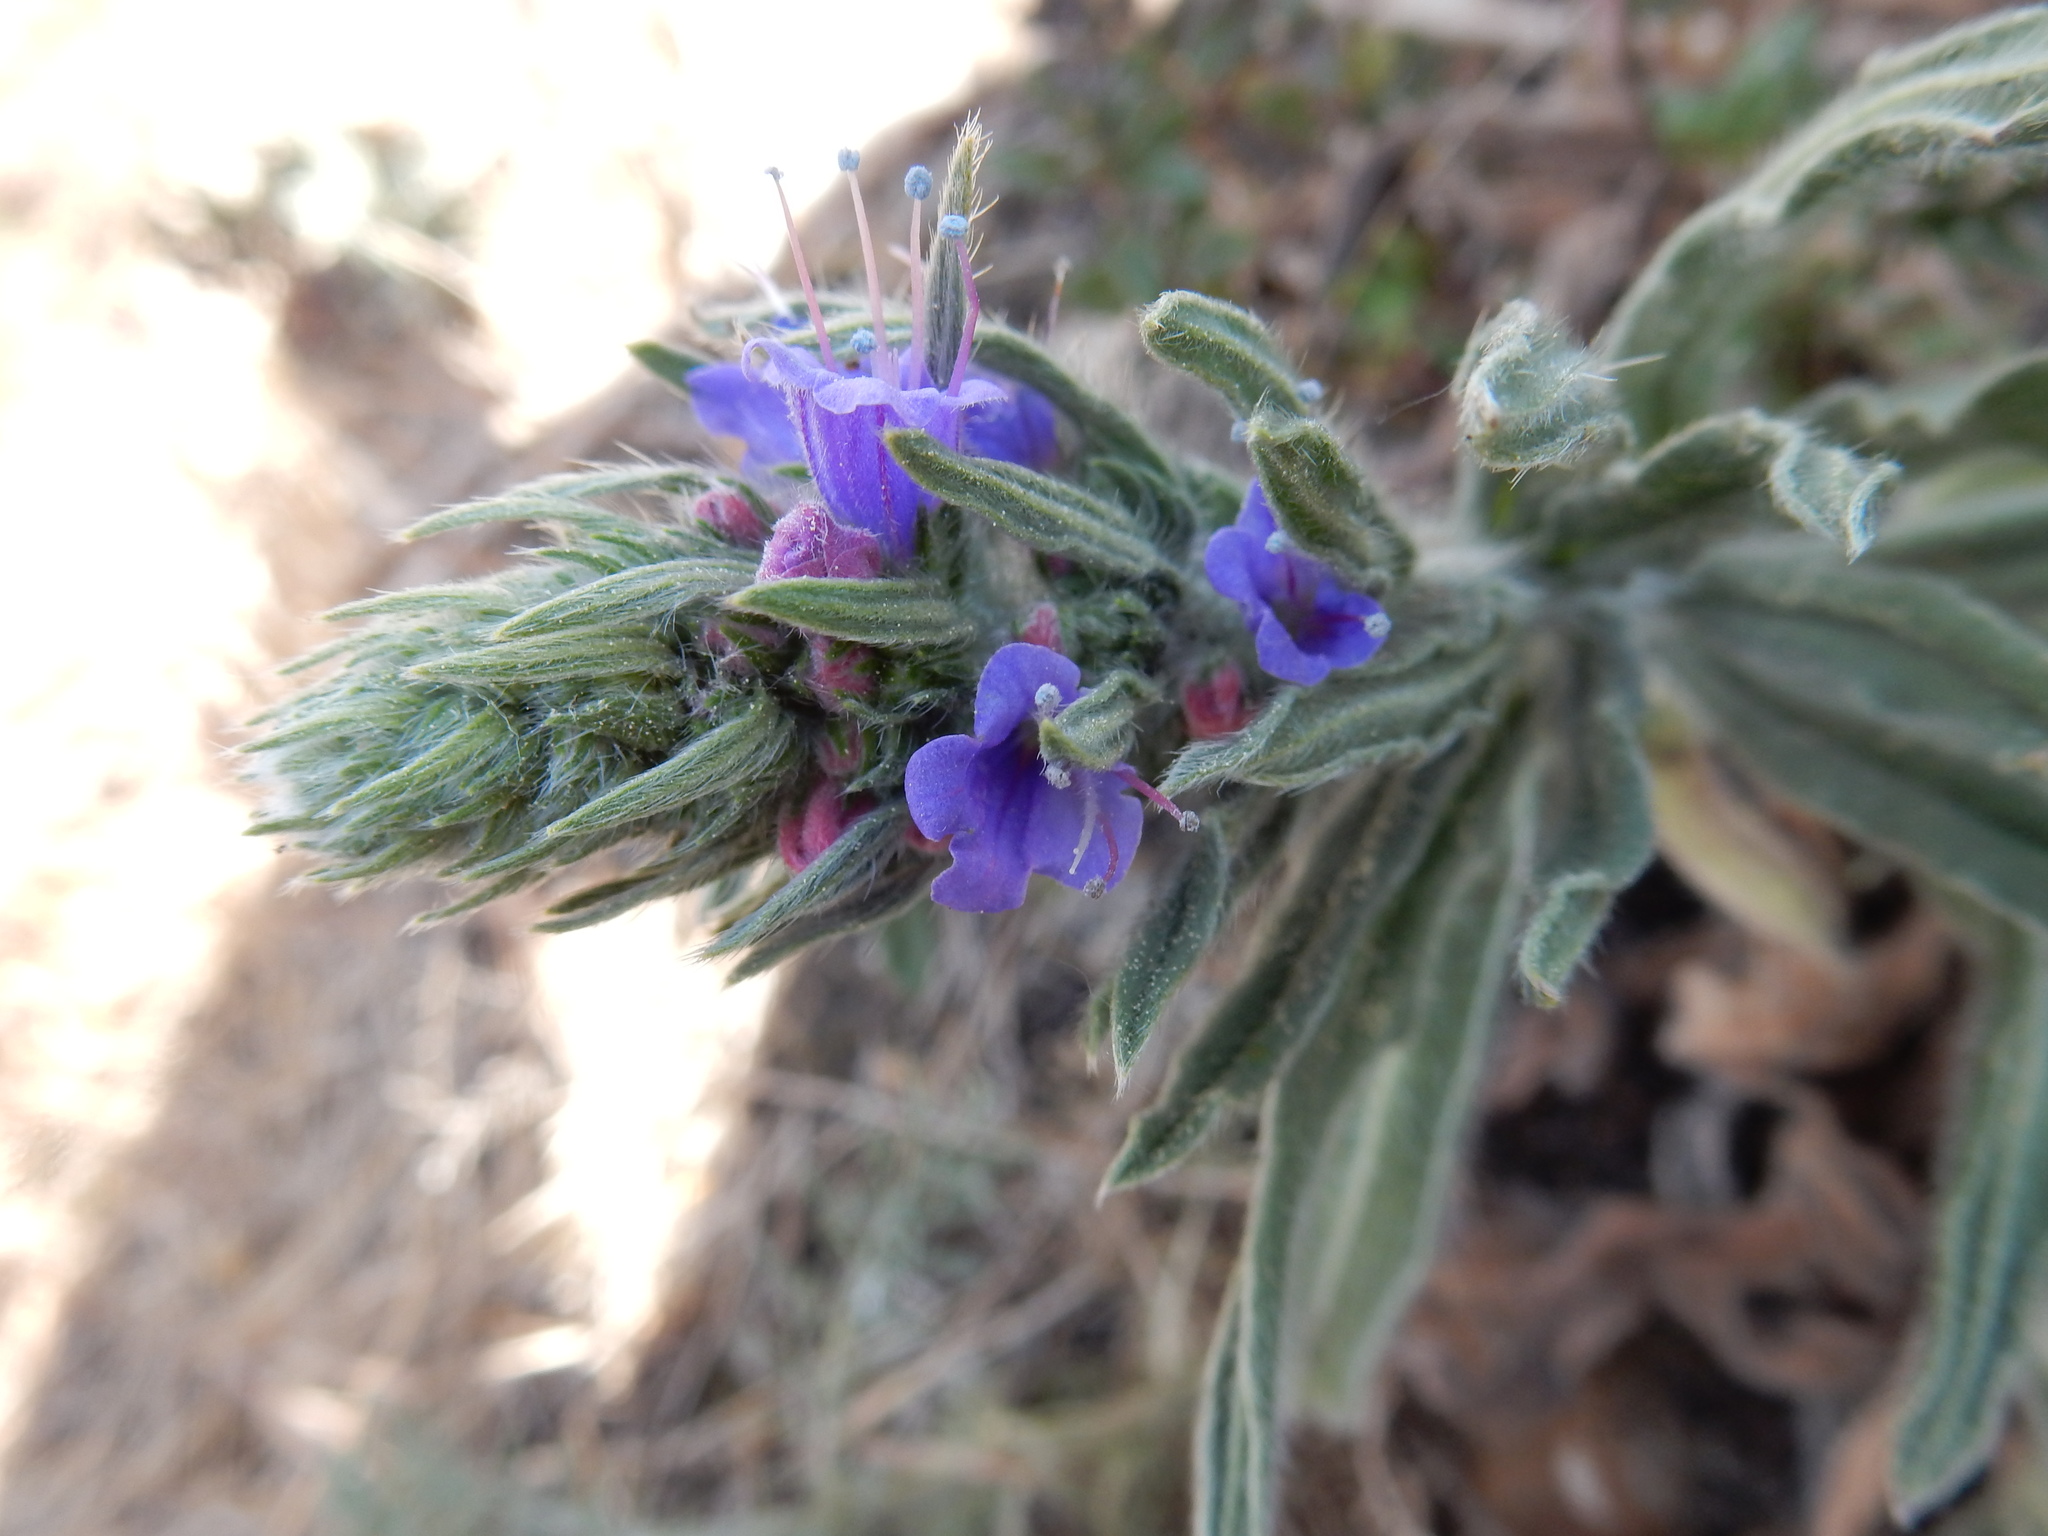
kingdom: Plantae
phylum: Tracheophyta
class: Magnoliopsida
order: Boraginales
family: Boraginaceae
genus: Echium
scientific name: Echium vulgare
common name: Common viper's bugloss
